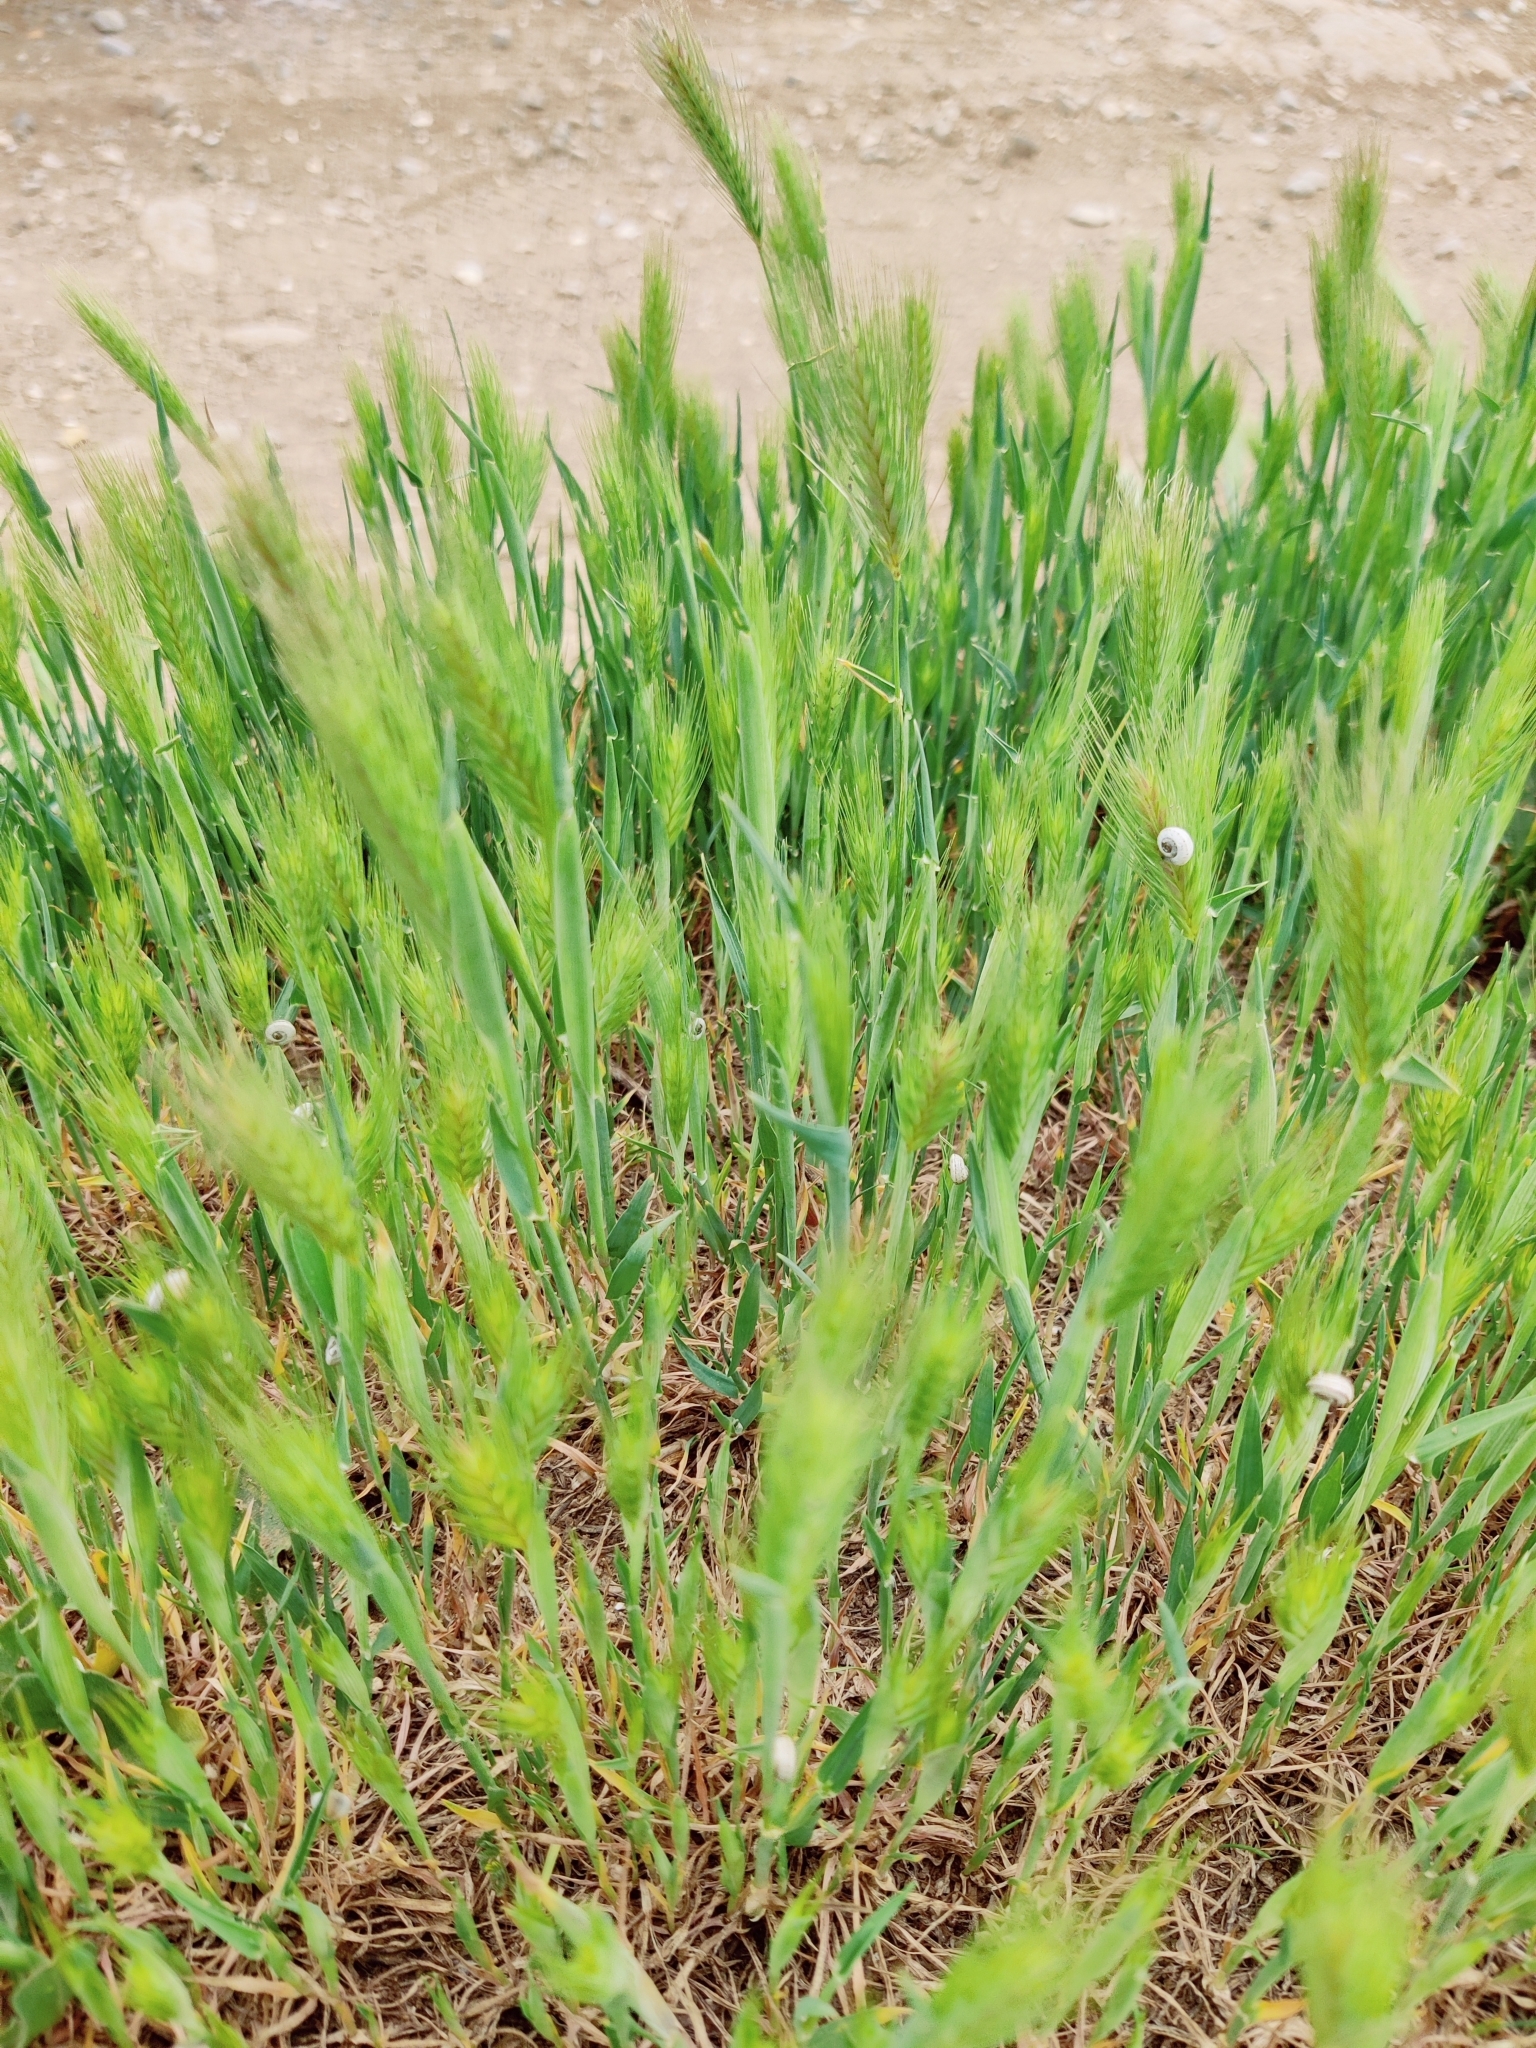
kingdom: Plantae
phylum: Tracheophyta
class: Liliopsida
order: Poales
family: Poaceae
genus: Hordeum
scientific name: Hordeum murinum
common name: Wall barley
